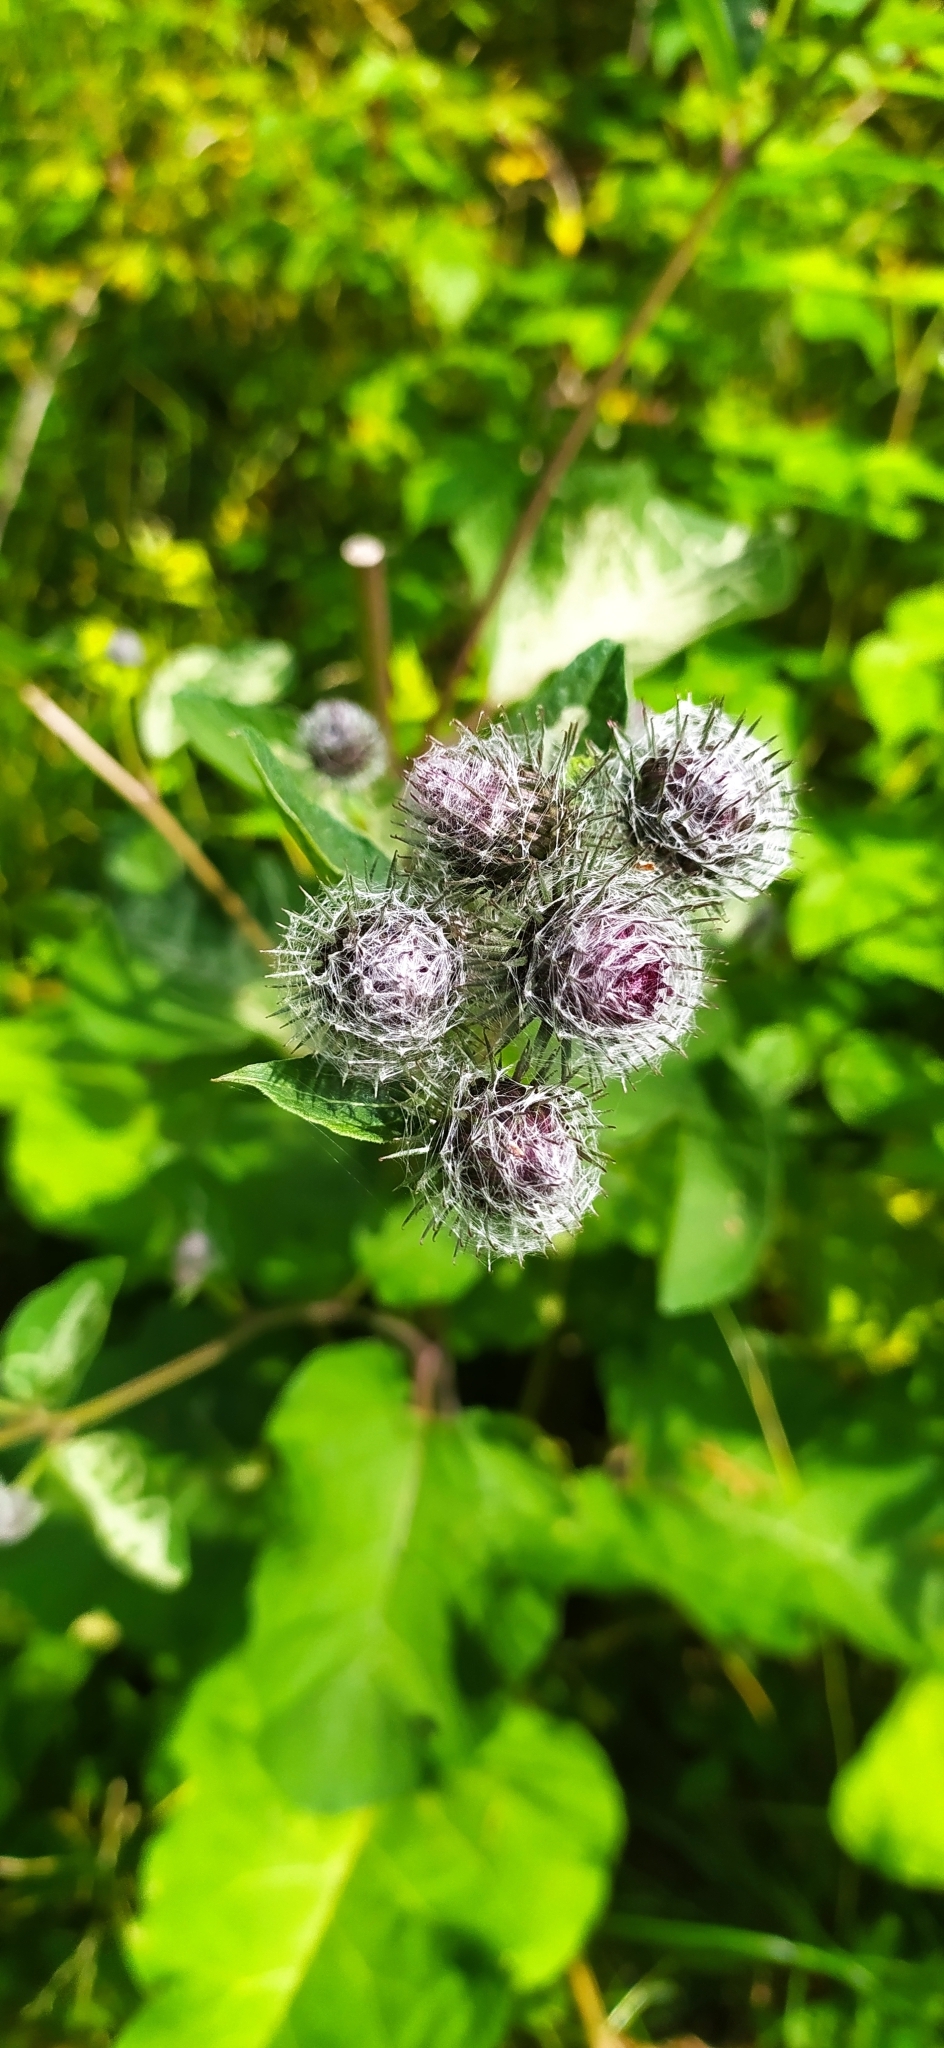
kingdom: Plantae
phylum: Tracheophyta
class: Magnoliopsida
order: Asterales
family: Asteraceae
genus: Arctium
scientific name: Arctium tomentosum
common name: Woolly burdock
